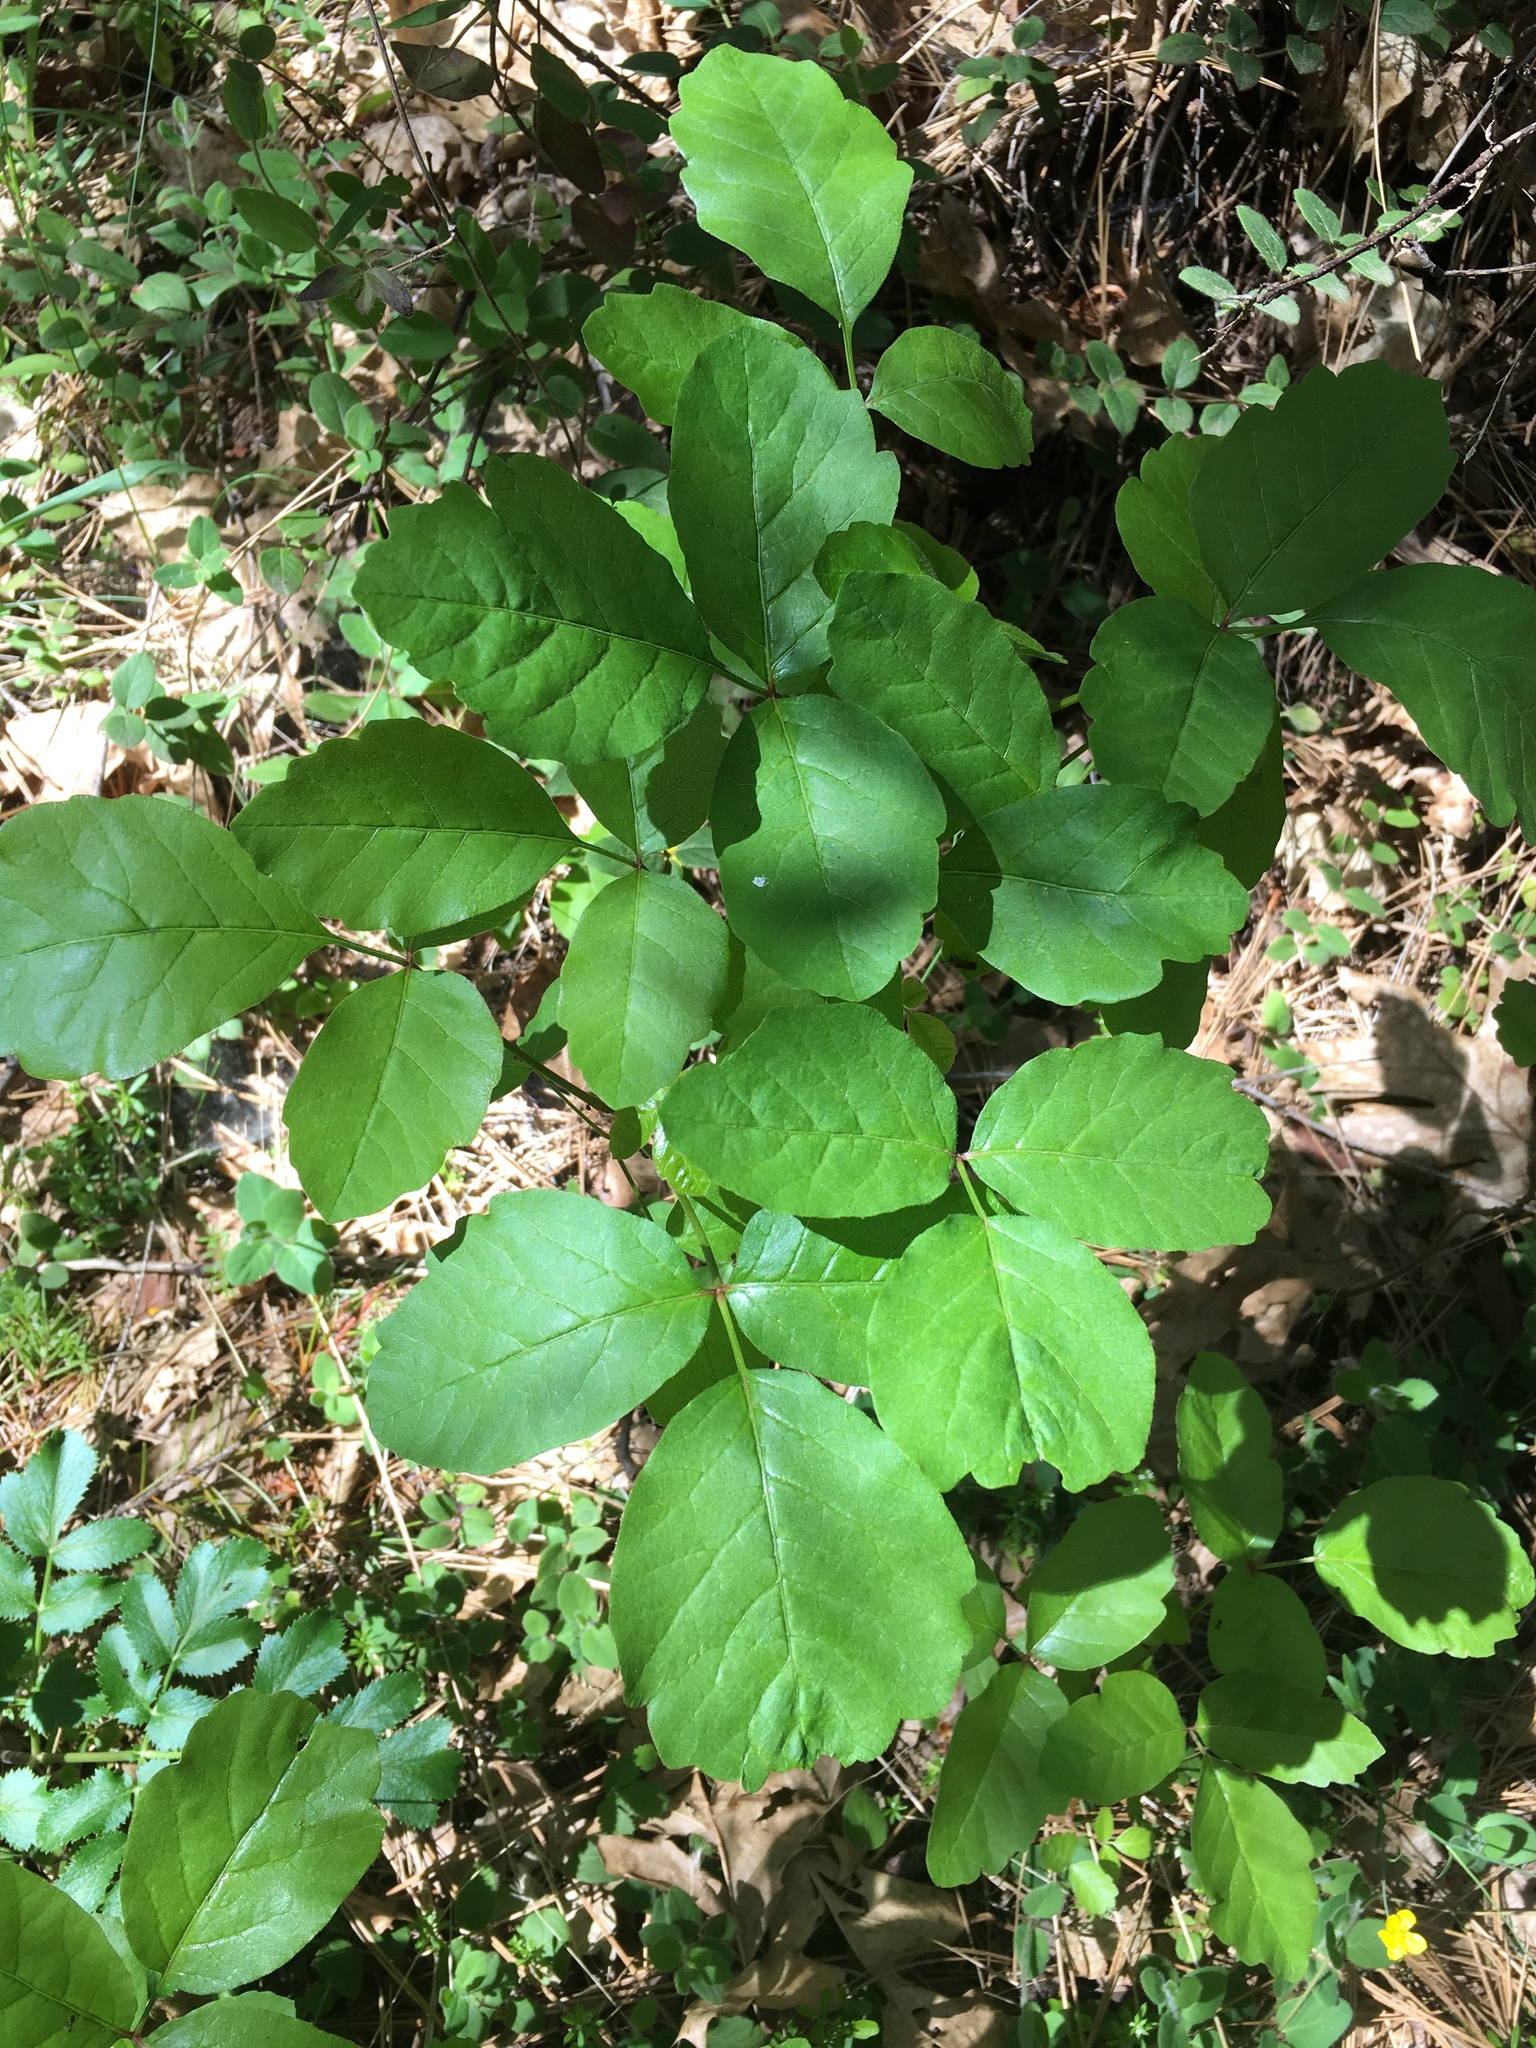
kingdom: Plantae
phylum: Tracheophyta
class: Magnoliopsida
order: Sapindales
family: Anacardiaceae
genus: Toxicodendron
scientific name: Toxicodendron diversilobum
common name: Pacific poison-oak
